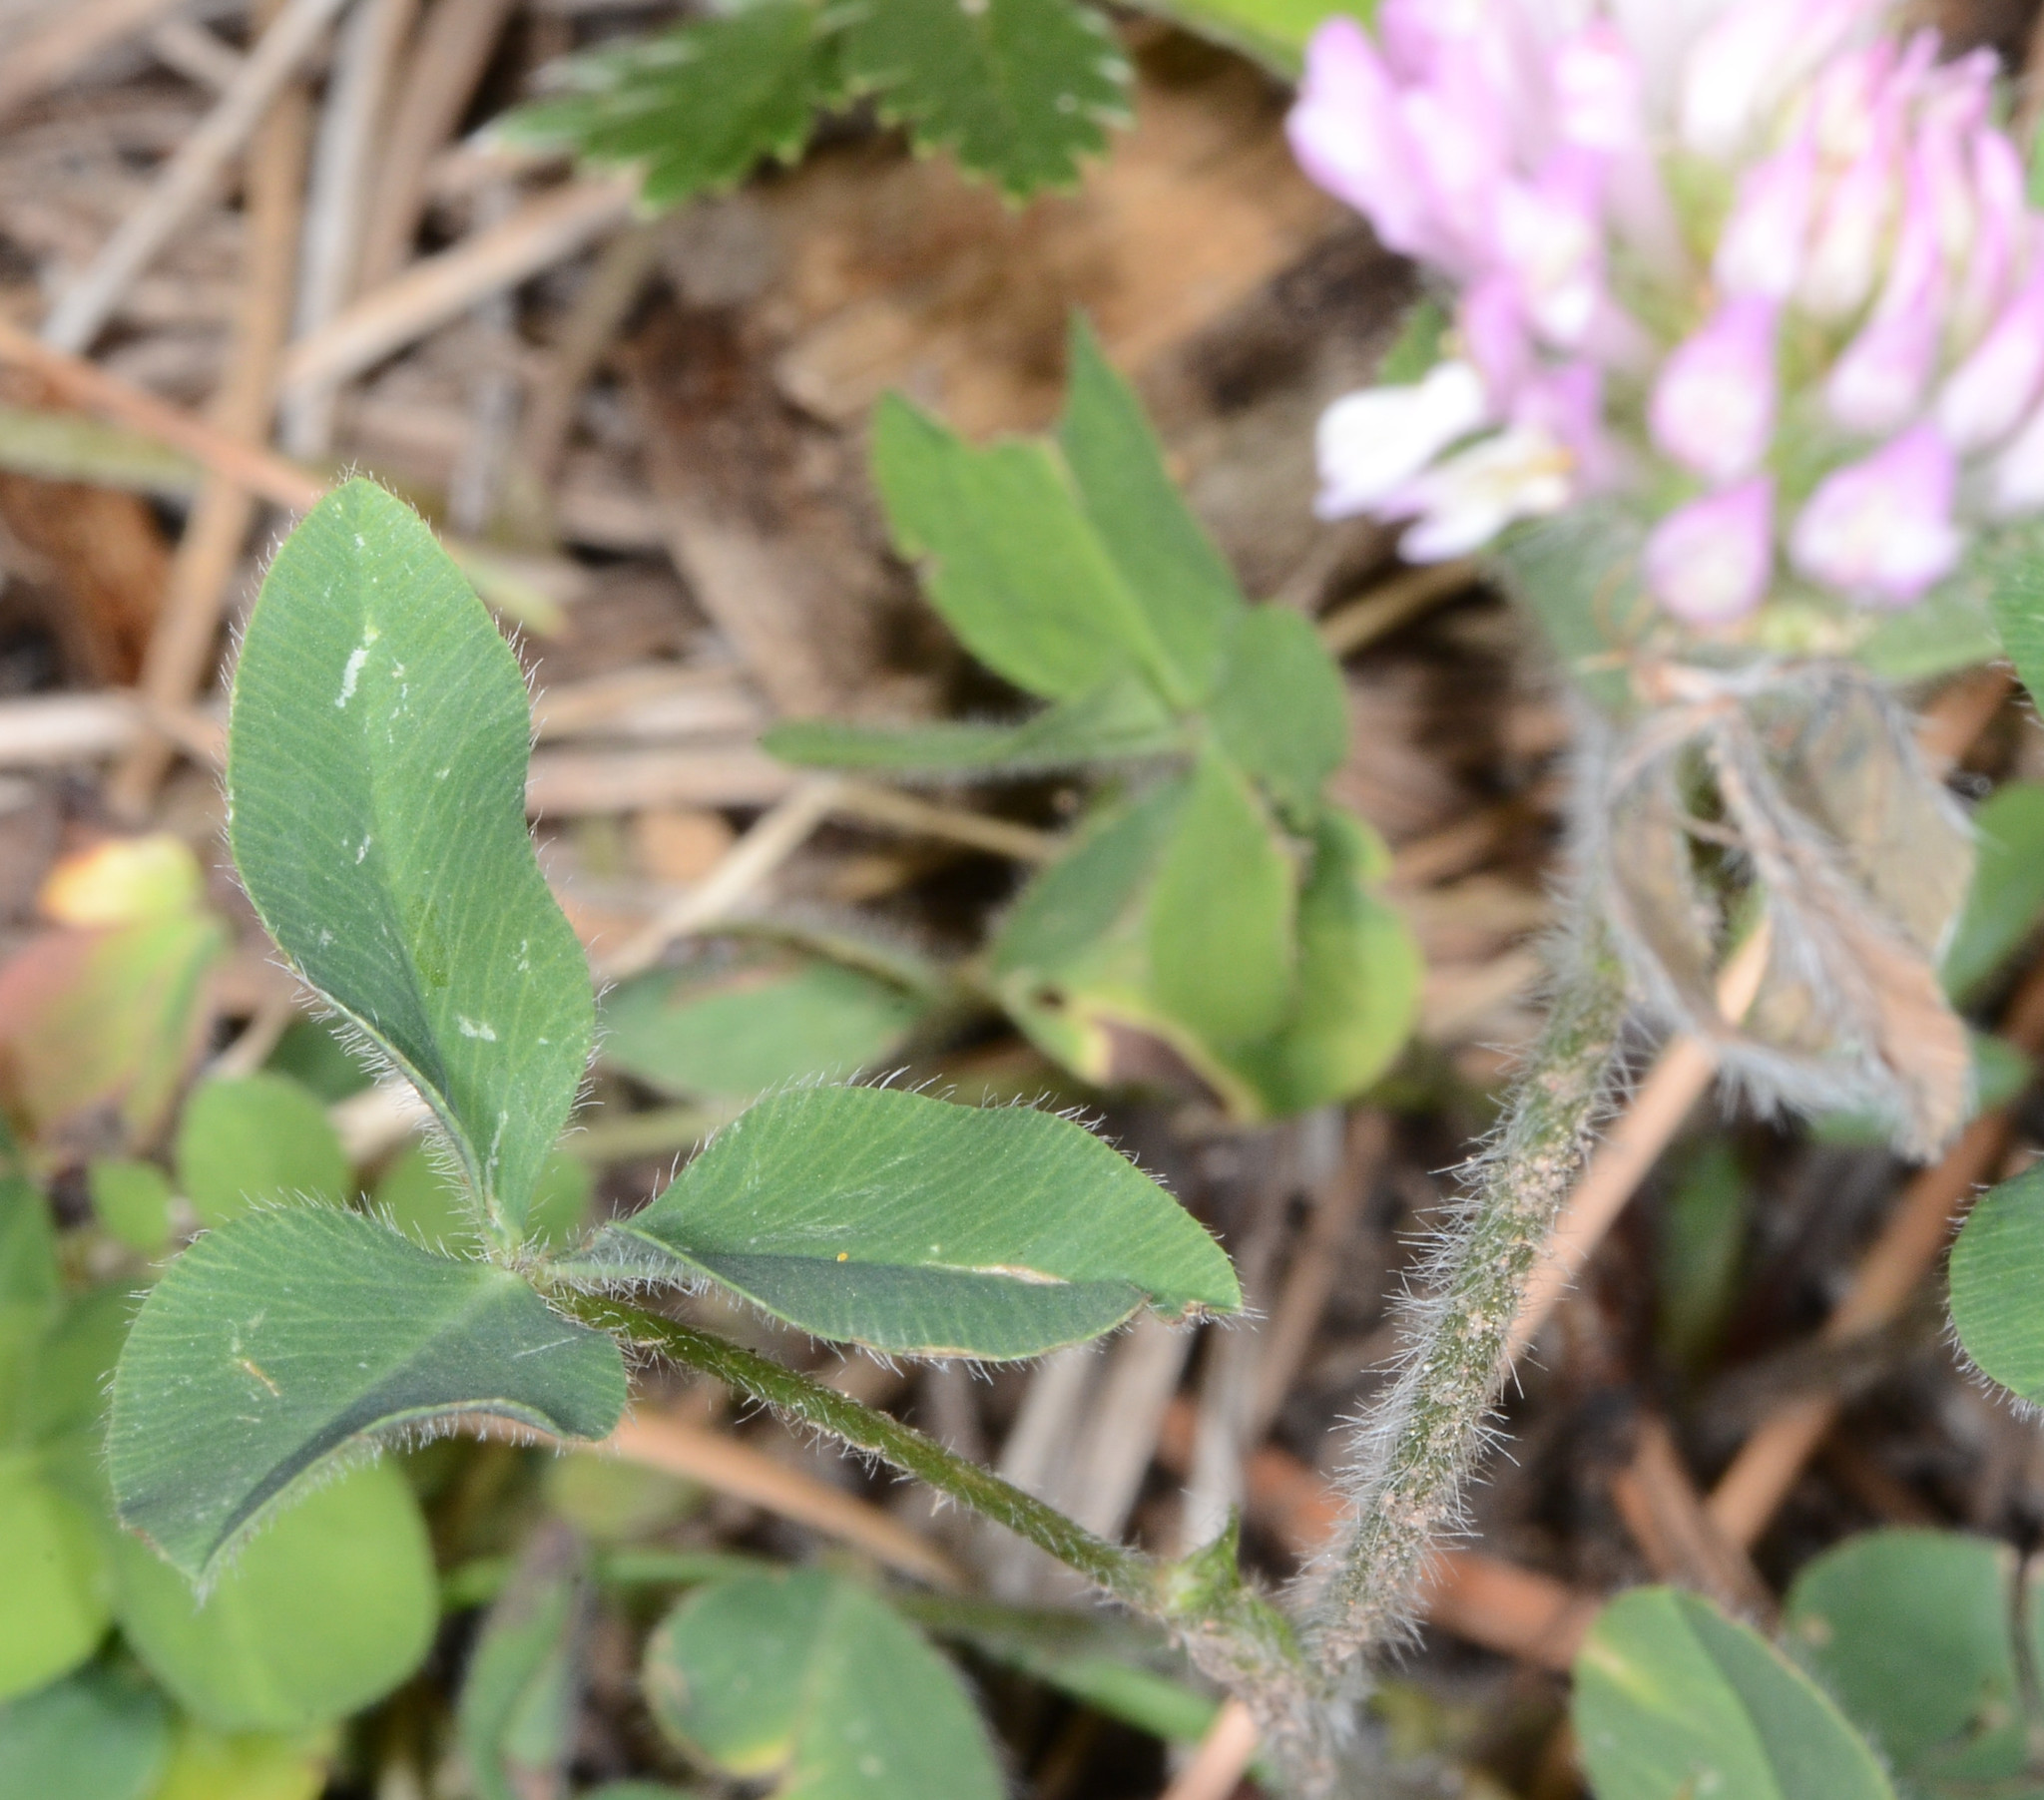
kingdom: Plantae
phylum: Tracheophyta
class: Magnoliopsida
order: Fabales
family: Fabaceae
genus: Trifolium
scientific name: Trifolium pratense
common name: Red clover
